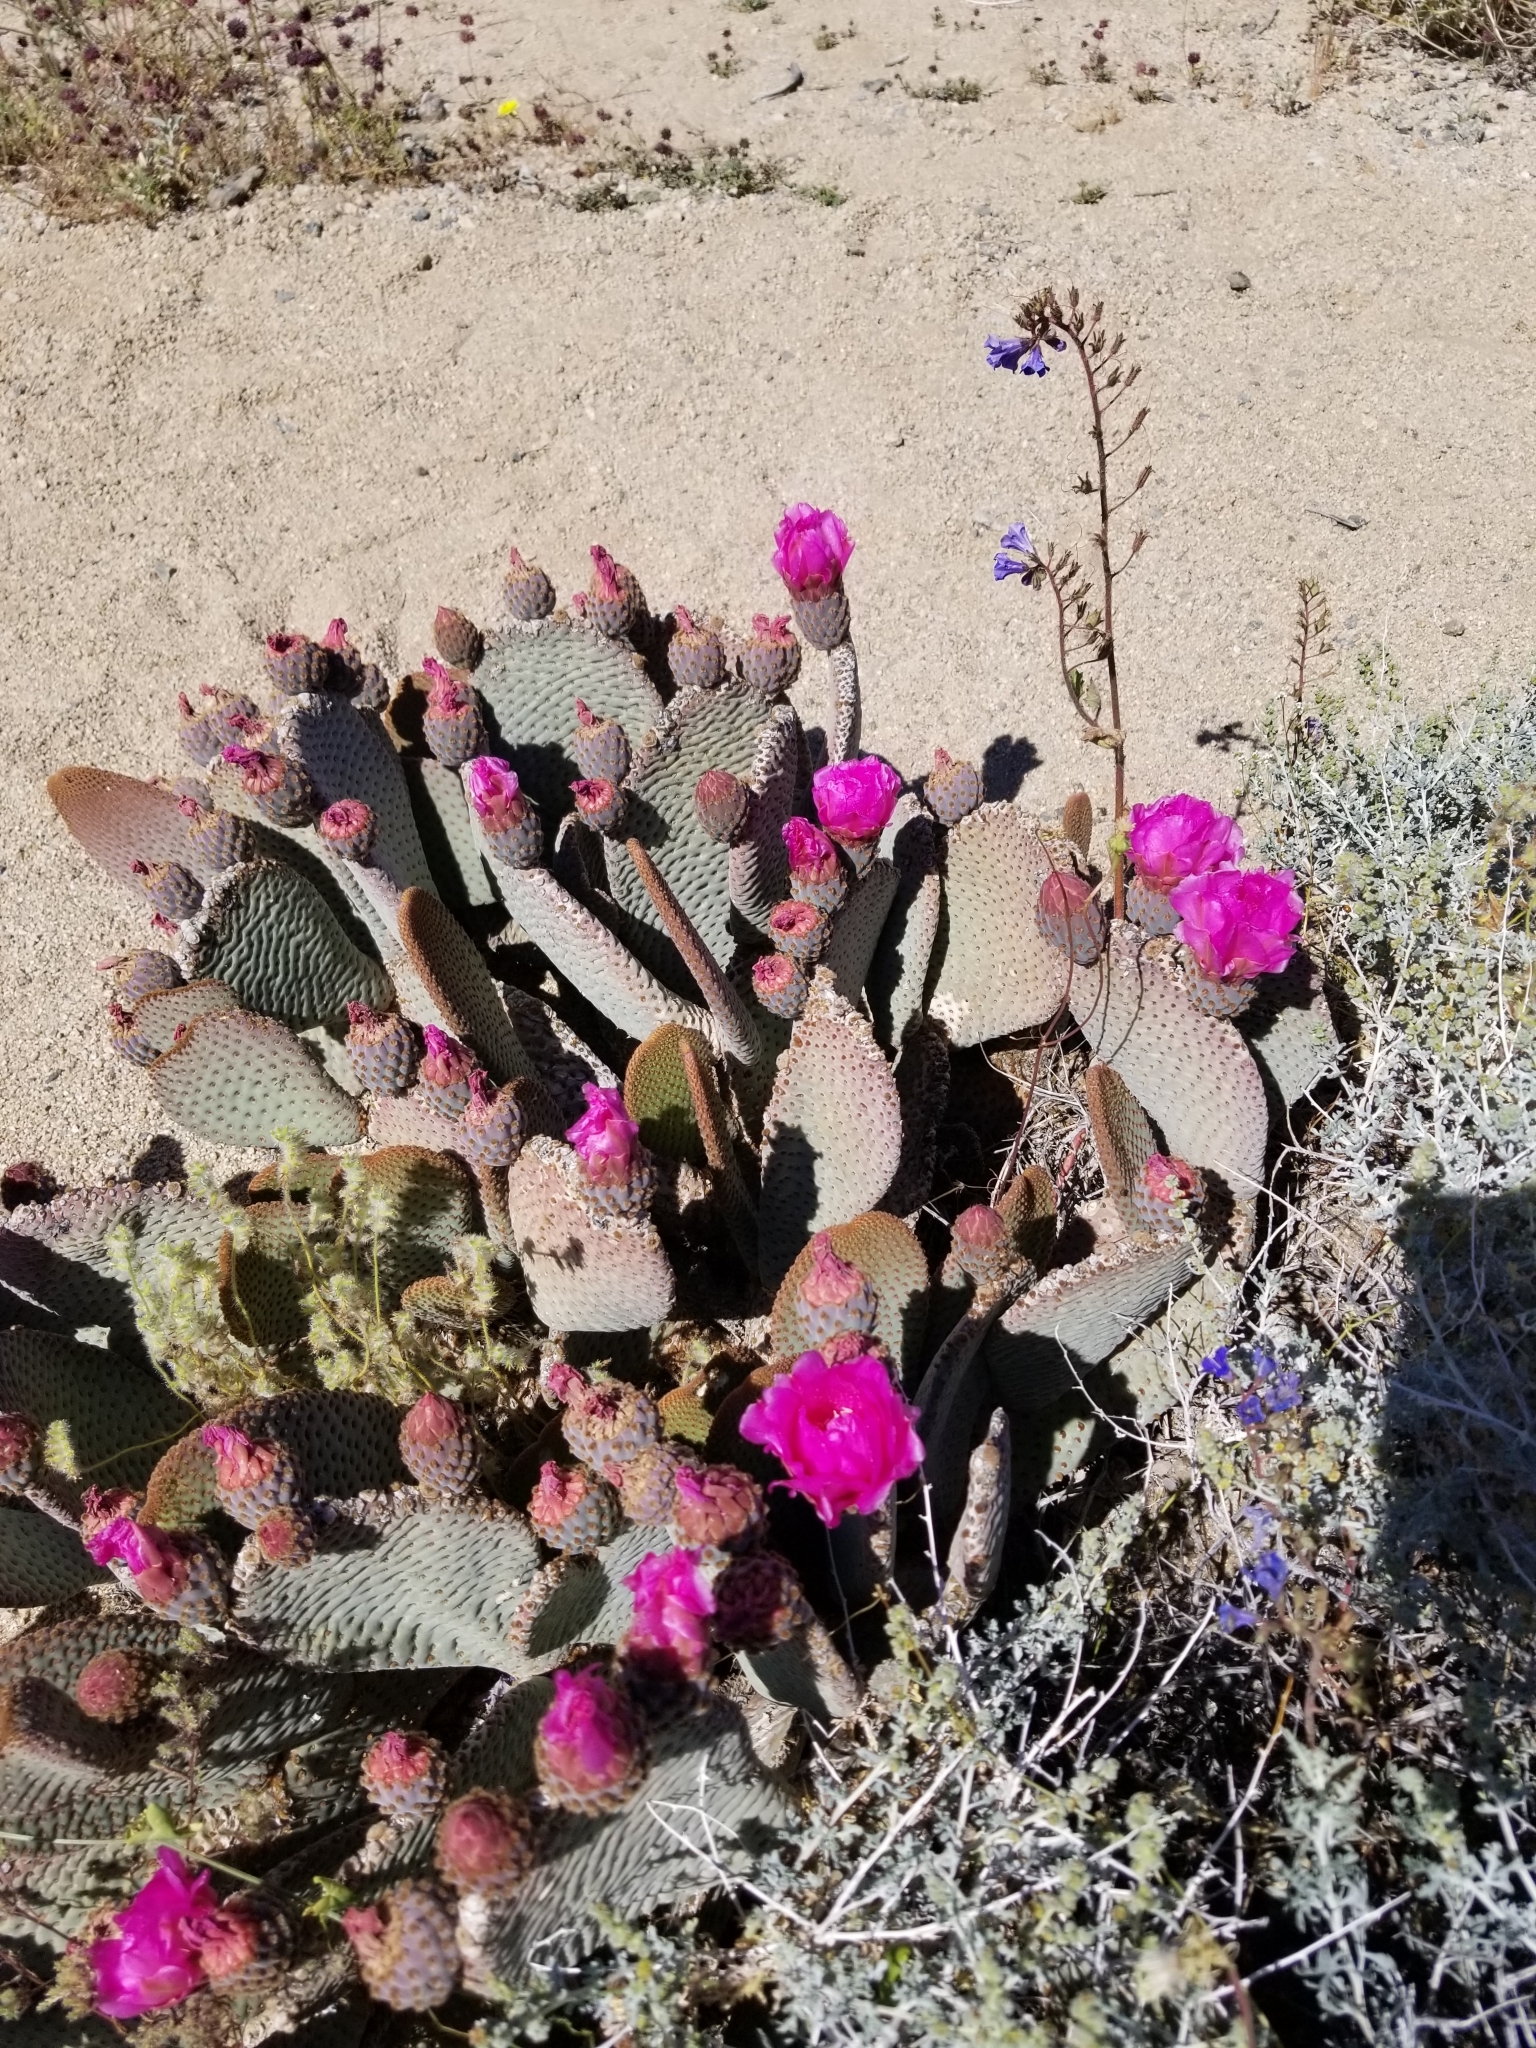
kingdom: Plantae
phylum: Tracheophyta
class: Magnoliopsida
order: Caryophyllales
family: Cactaceae
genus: Opuntia
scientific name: Opuntia basilaris
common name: Beavertail prickly-pear
